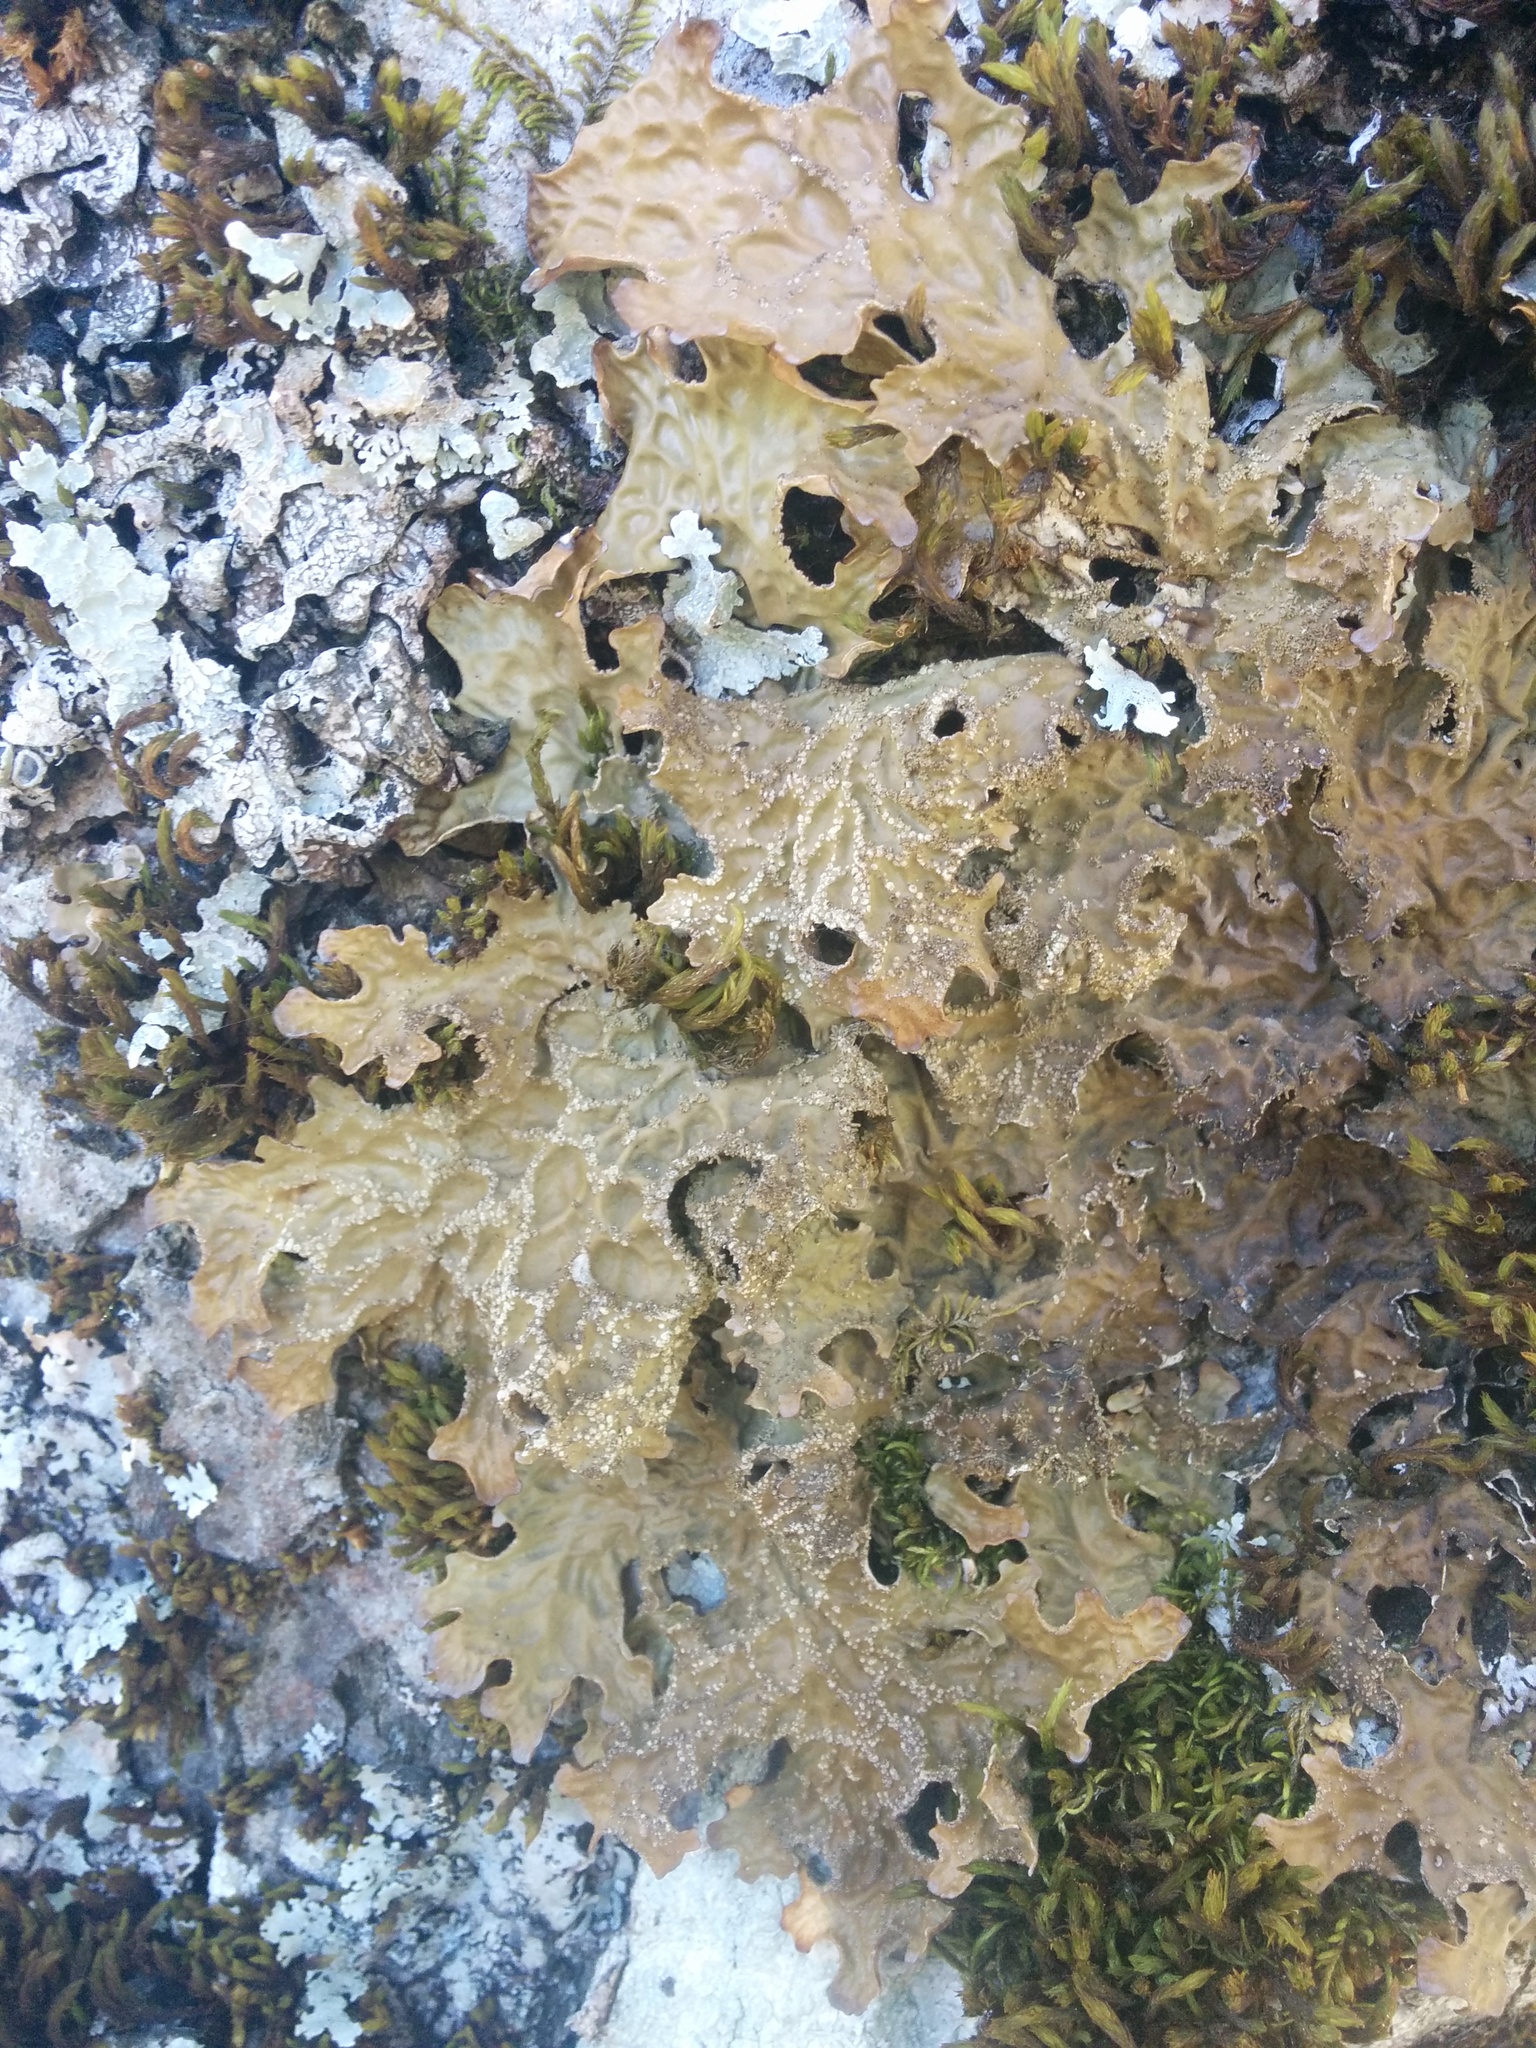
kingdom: Fungi
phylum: Ascomycota
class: Lecanoromycetes
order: Peltigerales
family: Lobariaceae
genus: Lobaria
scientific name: Lobaria pulmonaria
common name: Lungwort
